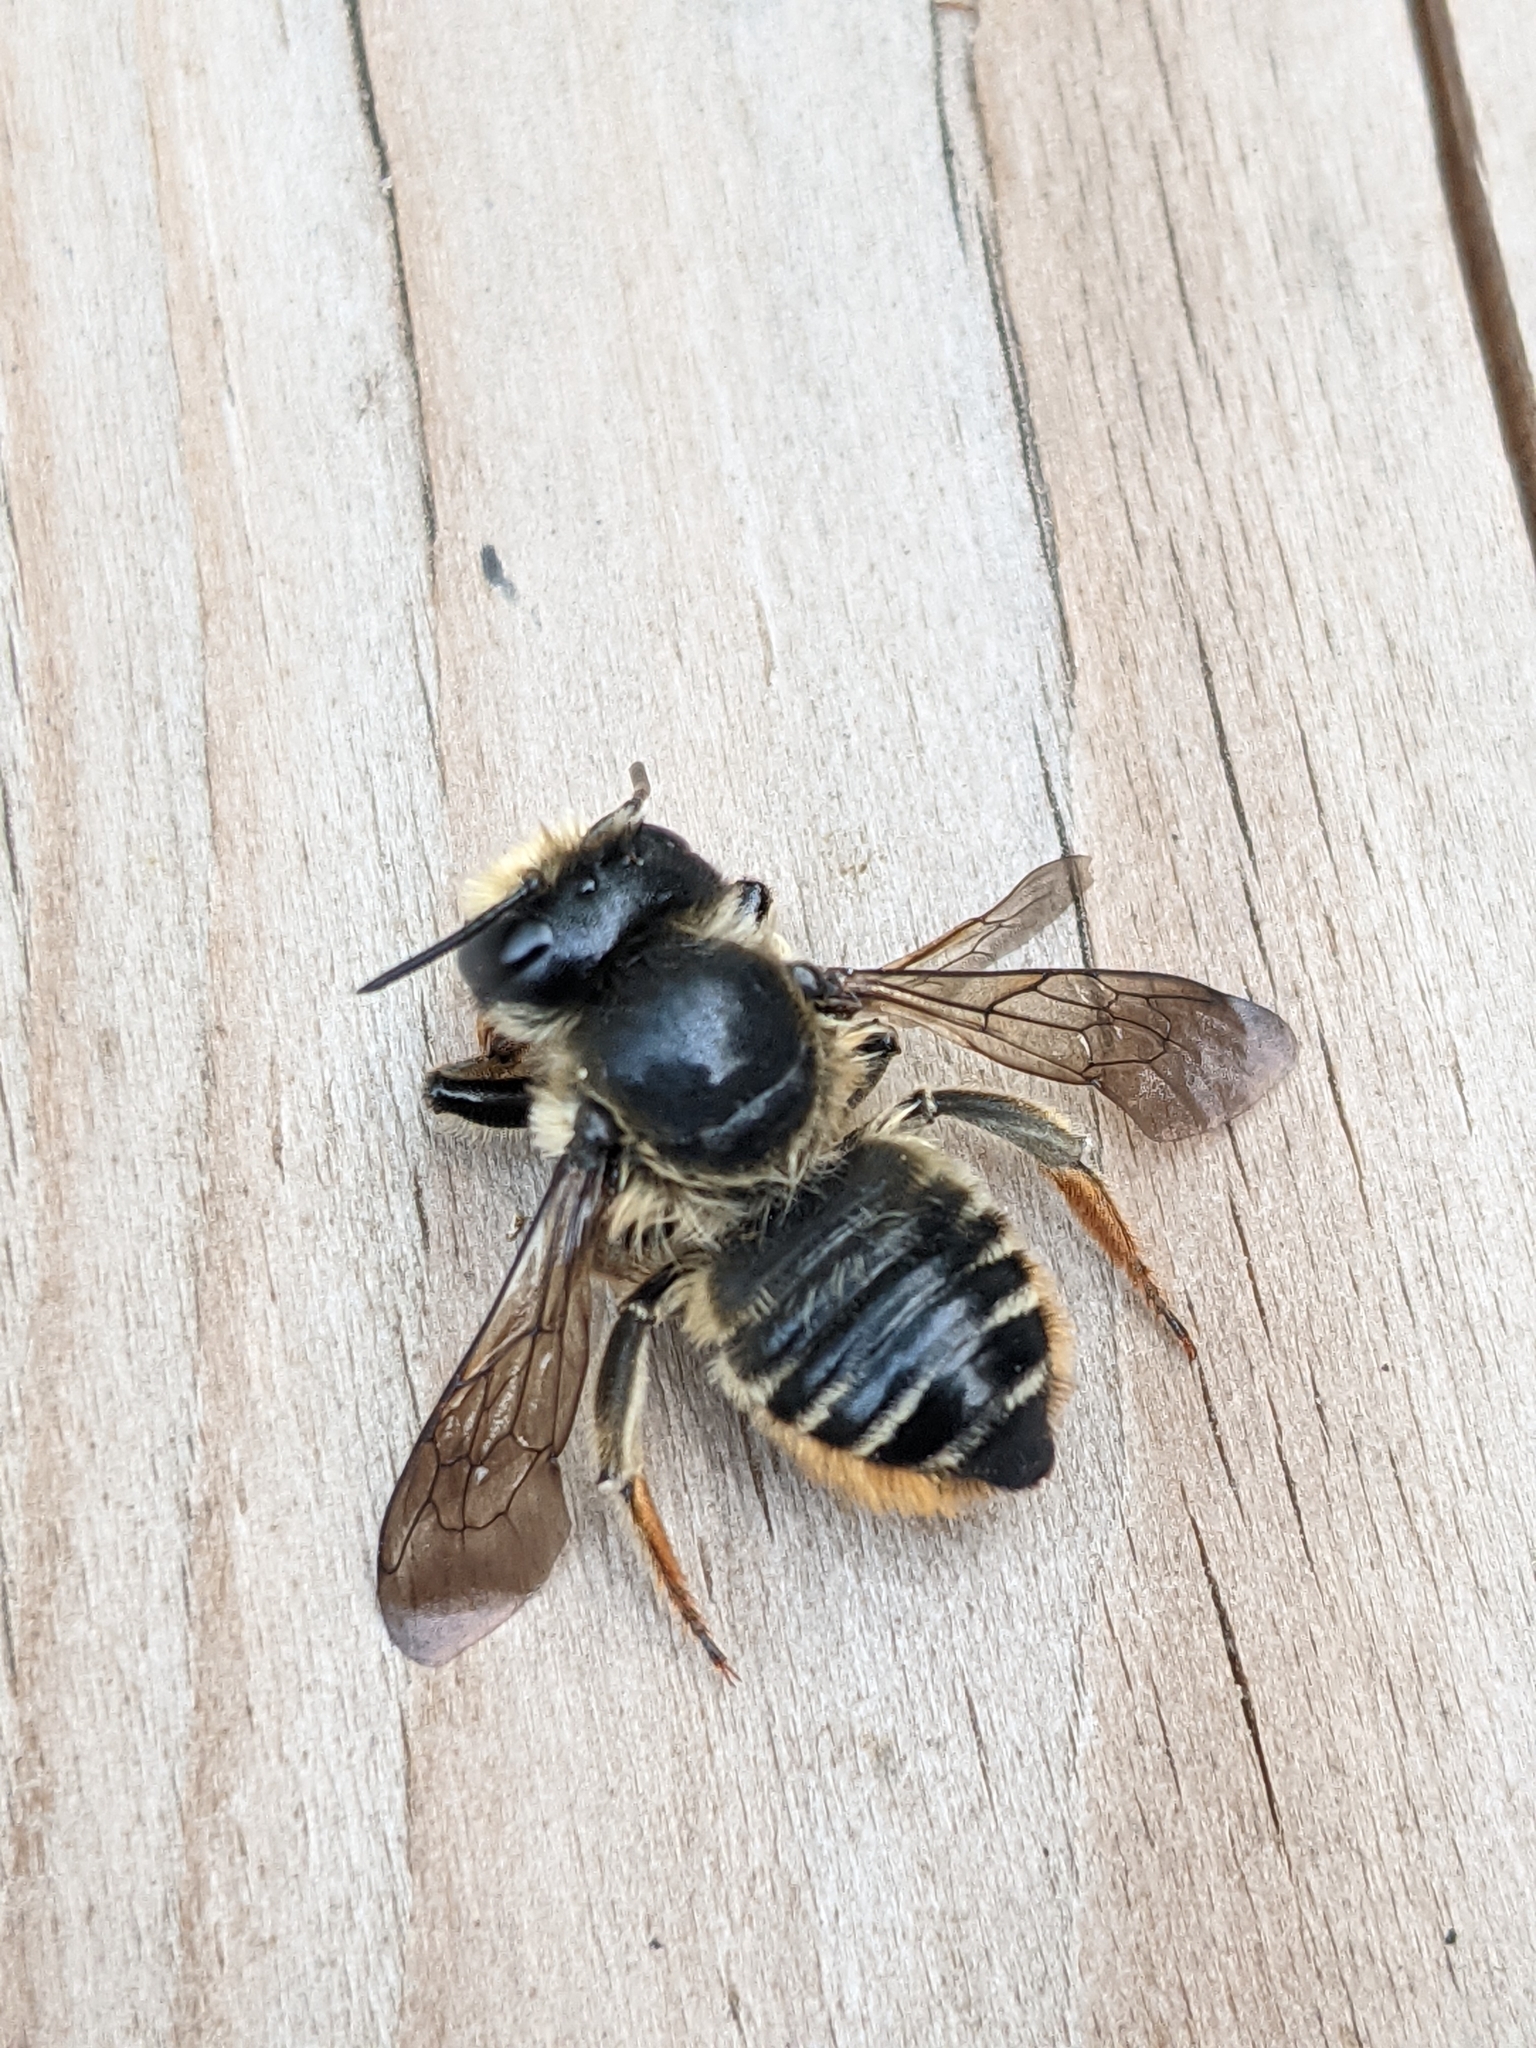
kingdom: Animalia
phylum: Arthropoda
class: Insecta
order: Hymenoptera
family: Megachilidae
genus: Megachile
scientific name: Megachile inermis
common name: Unarmed leafcutter bee
